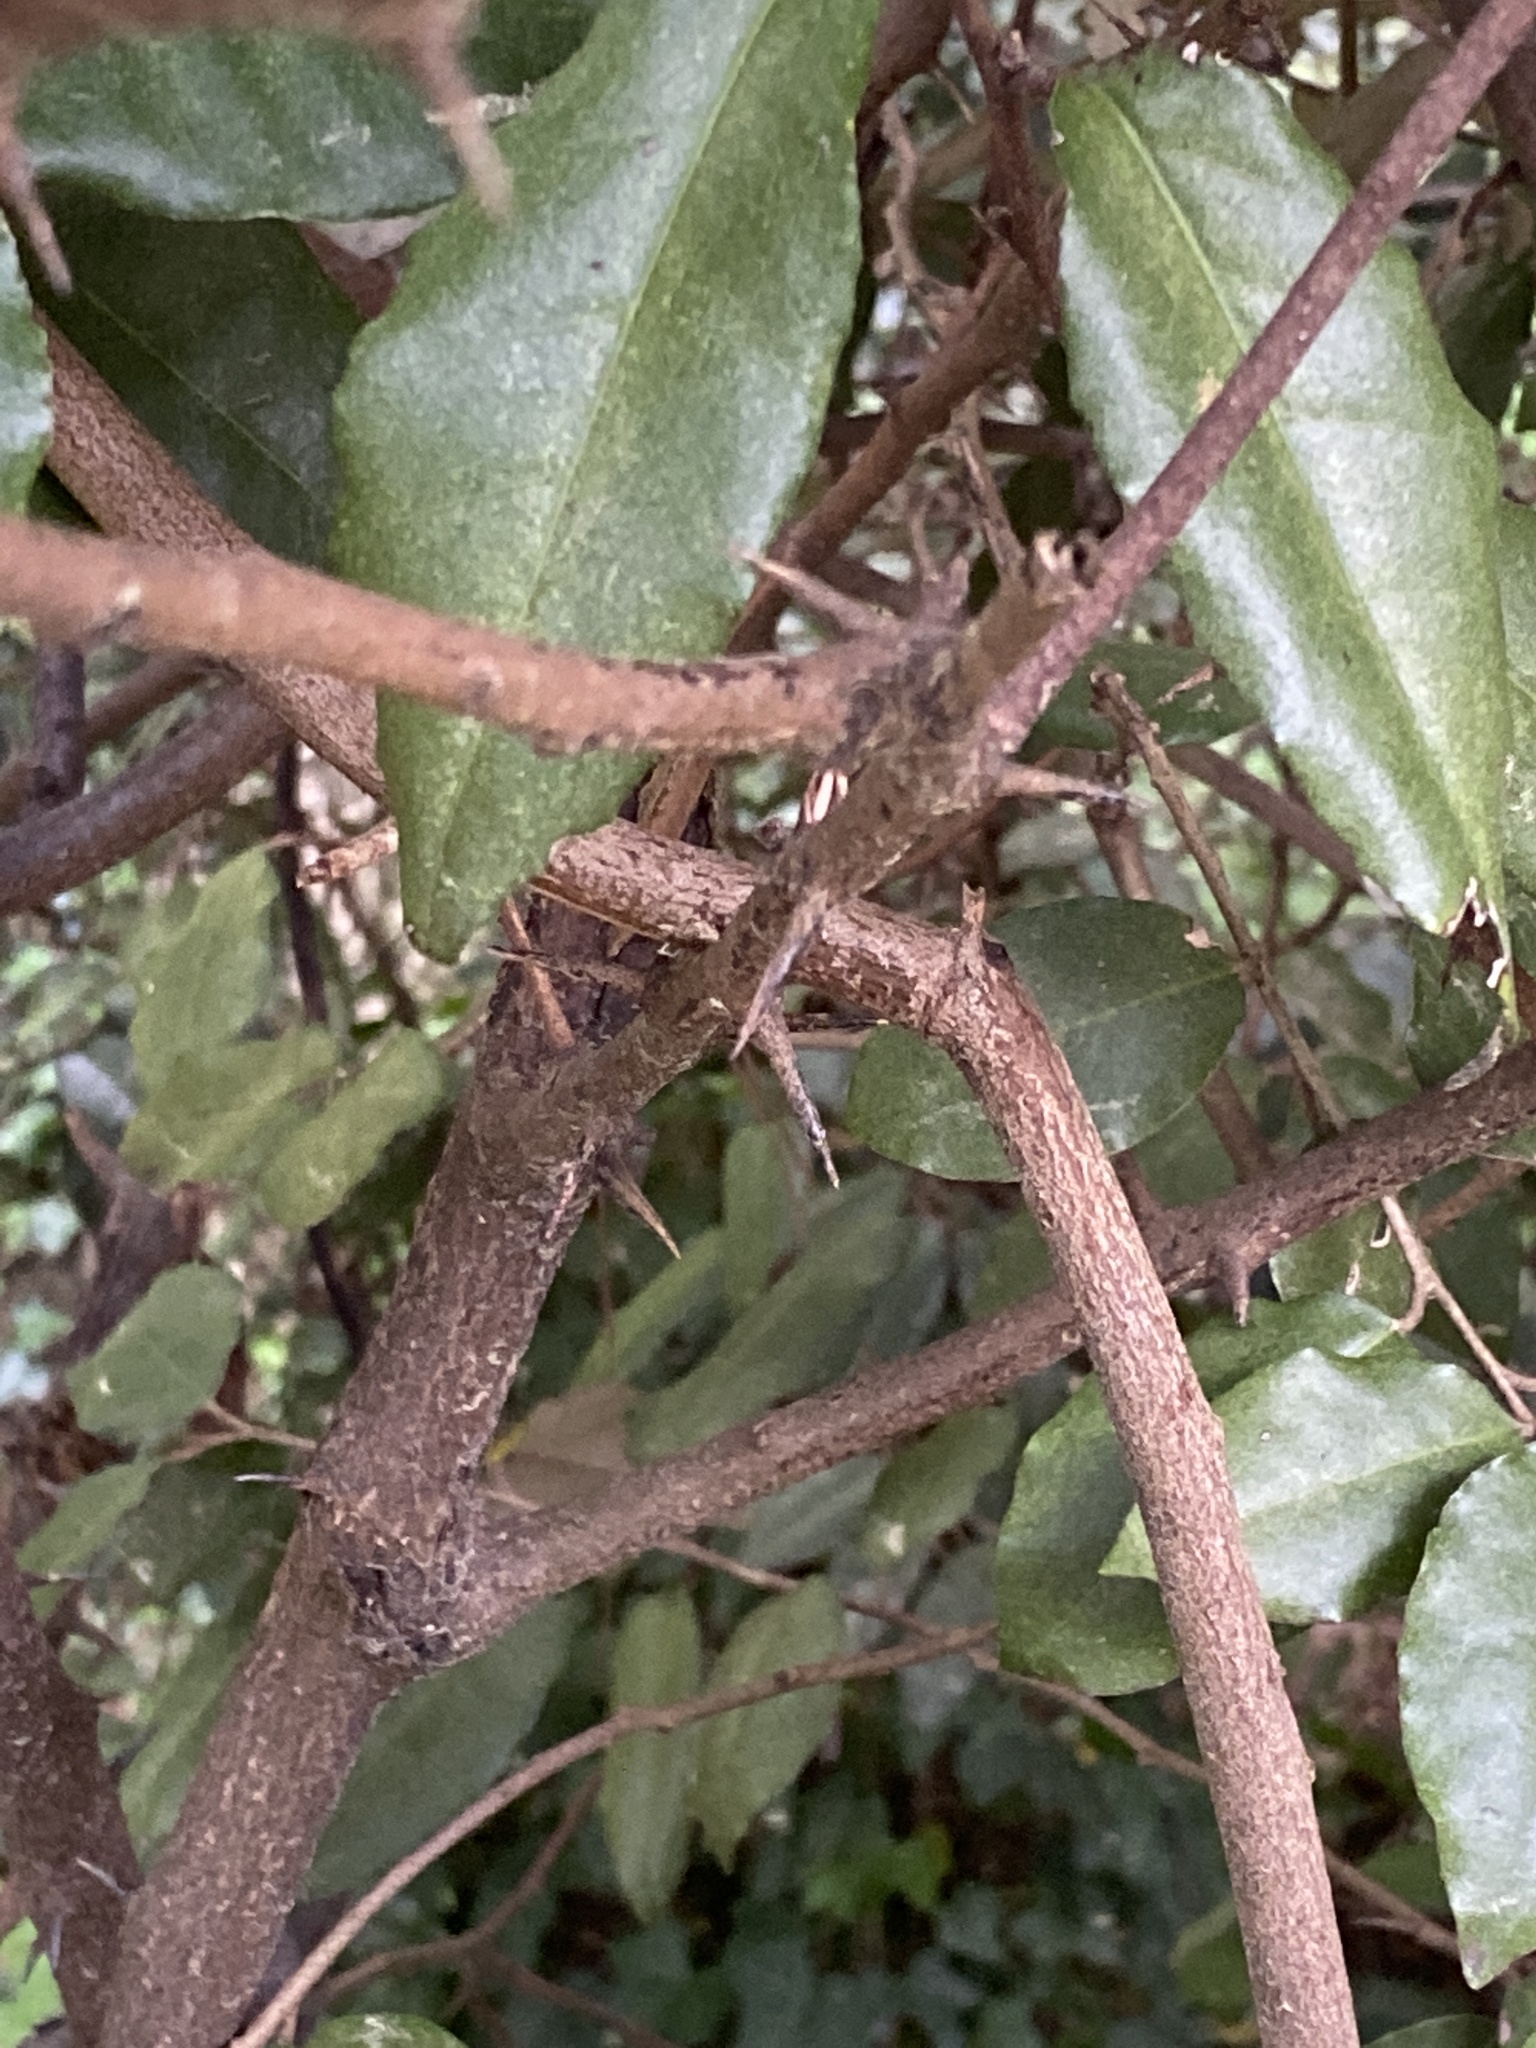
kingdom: Plantae
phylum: Tracheophyta
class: Magnoliopsida
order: Rosales
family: Elaeagnaceae
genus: Elaeagnus
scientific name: Elaeagnus pungens
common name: Spiny oleaster
